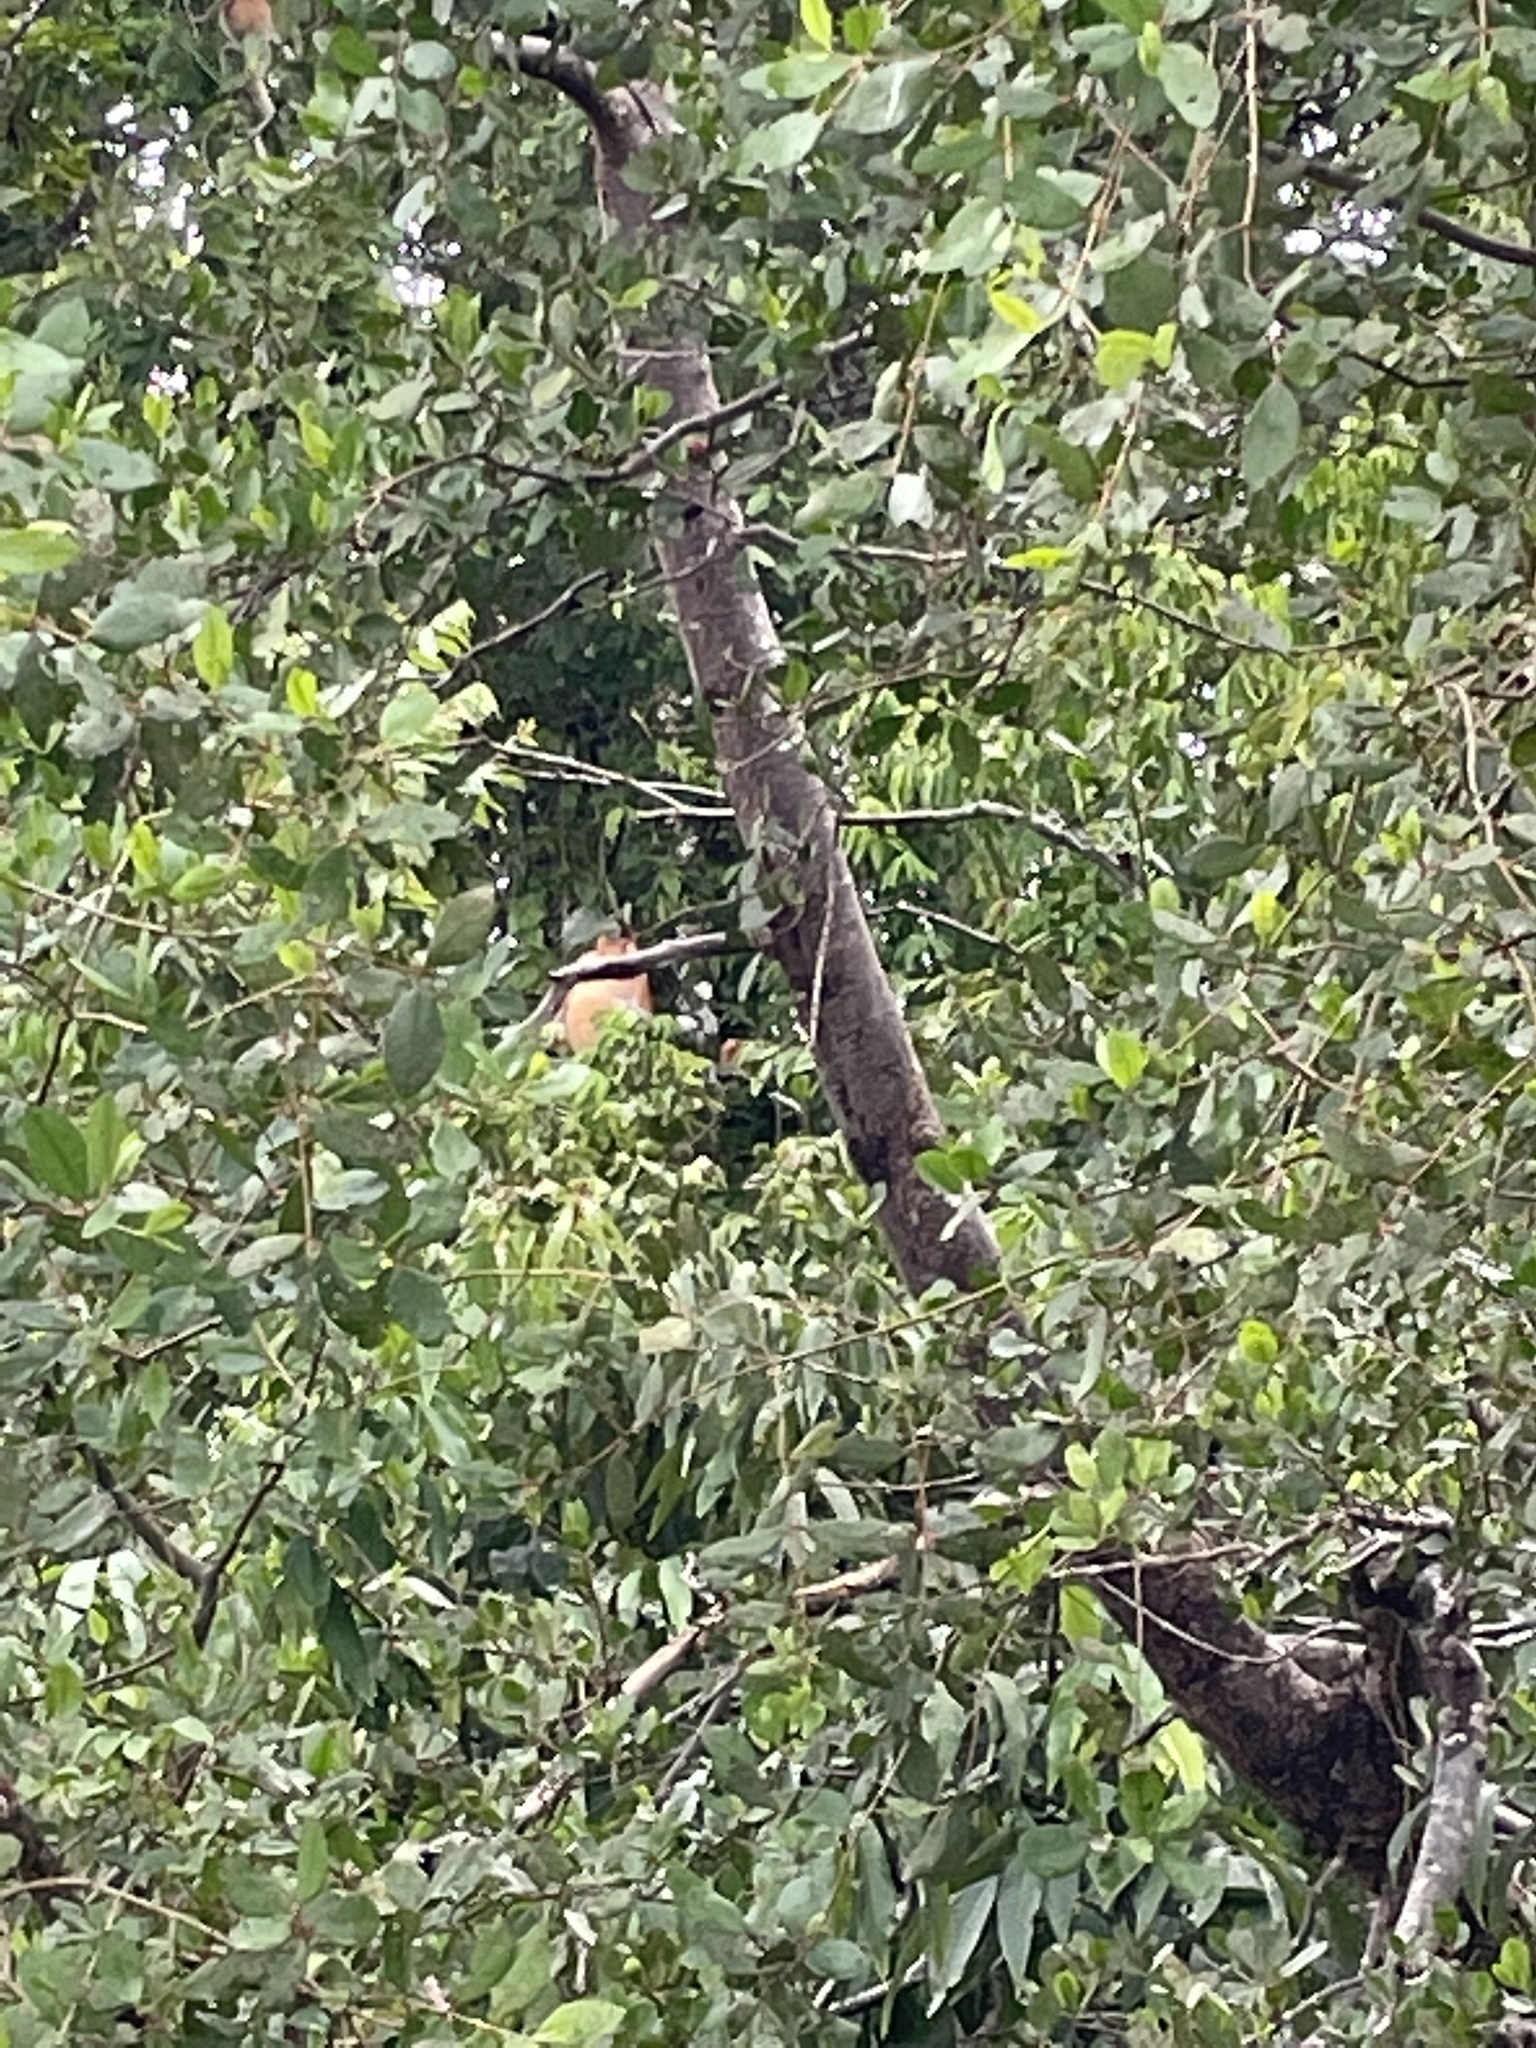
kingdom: Animalia
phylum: Chordata
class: Mammalia
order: Primates
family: Cercopithecidae
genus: Nasalis
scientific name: Nasalis larvatus
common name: Proboscis monkey
